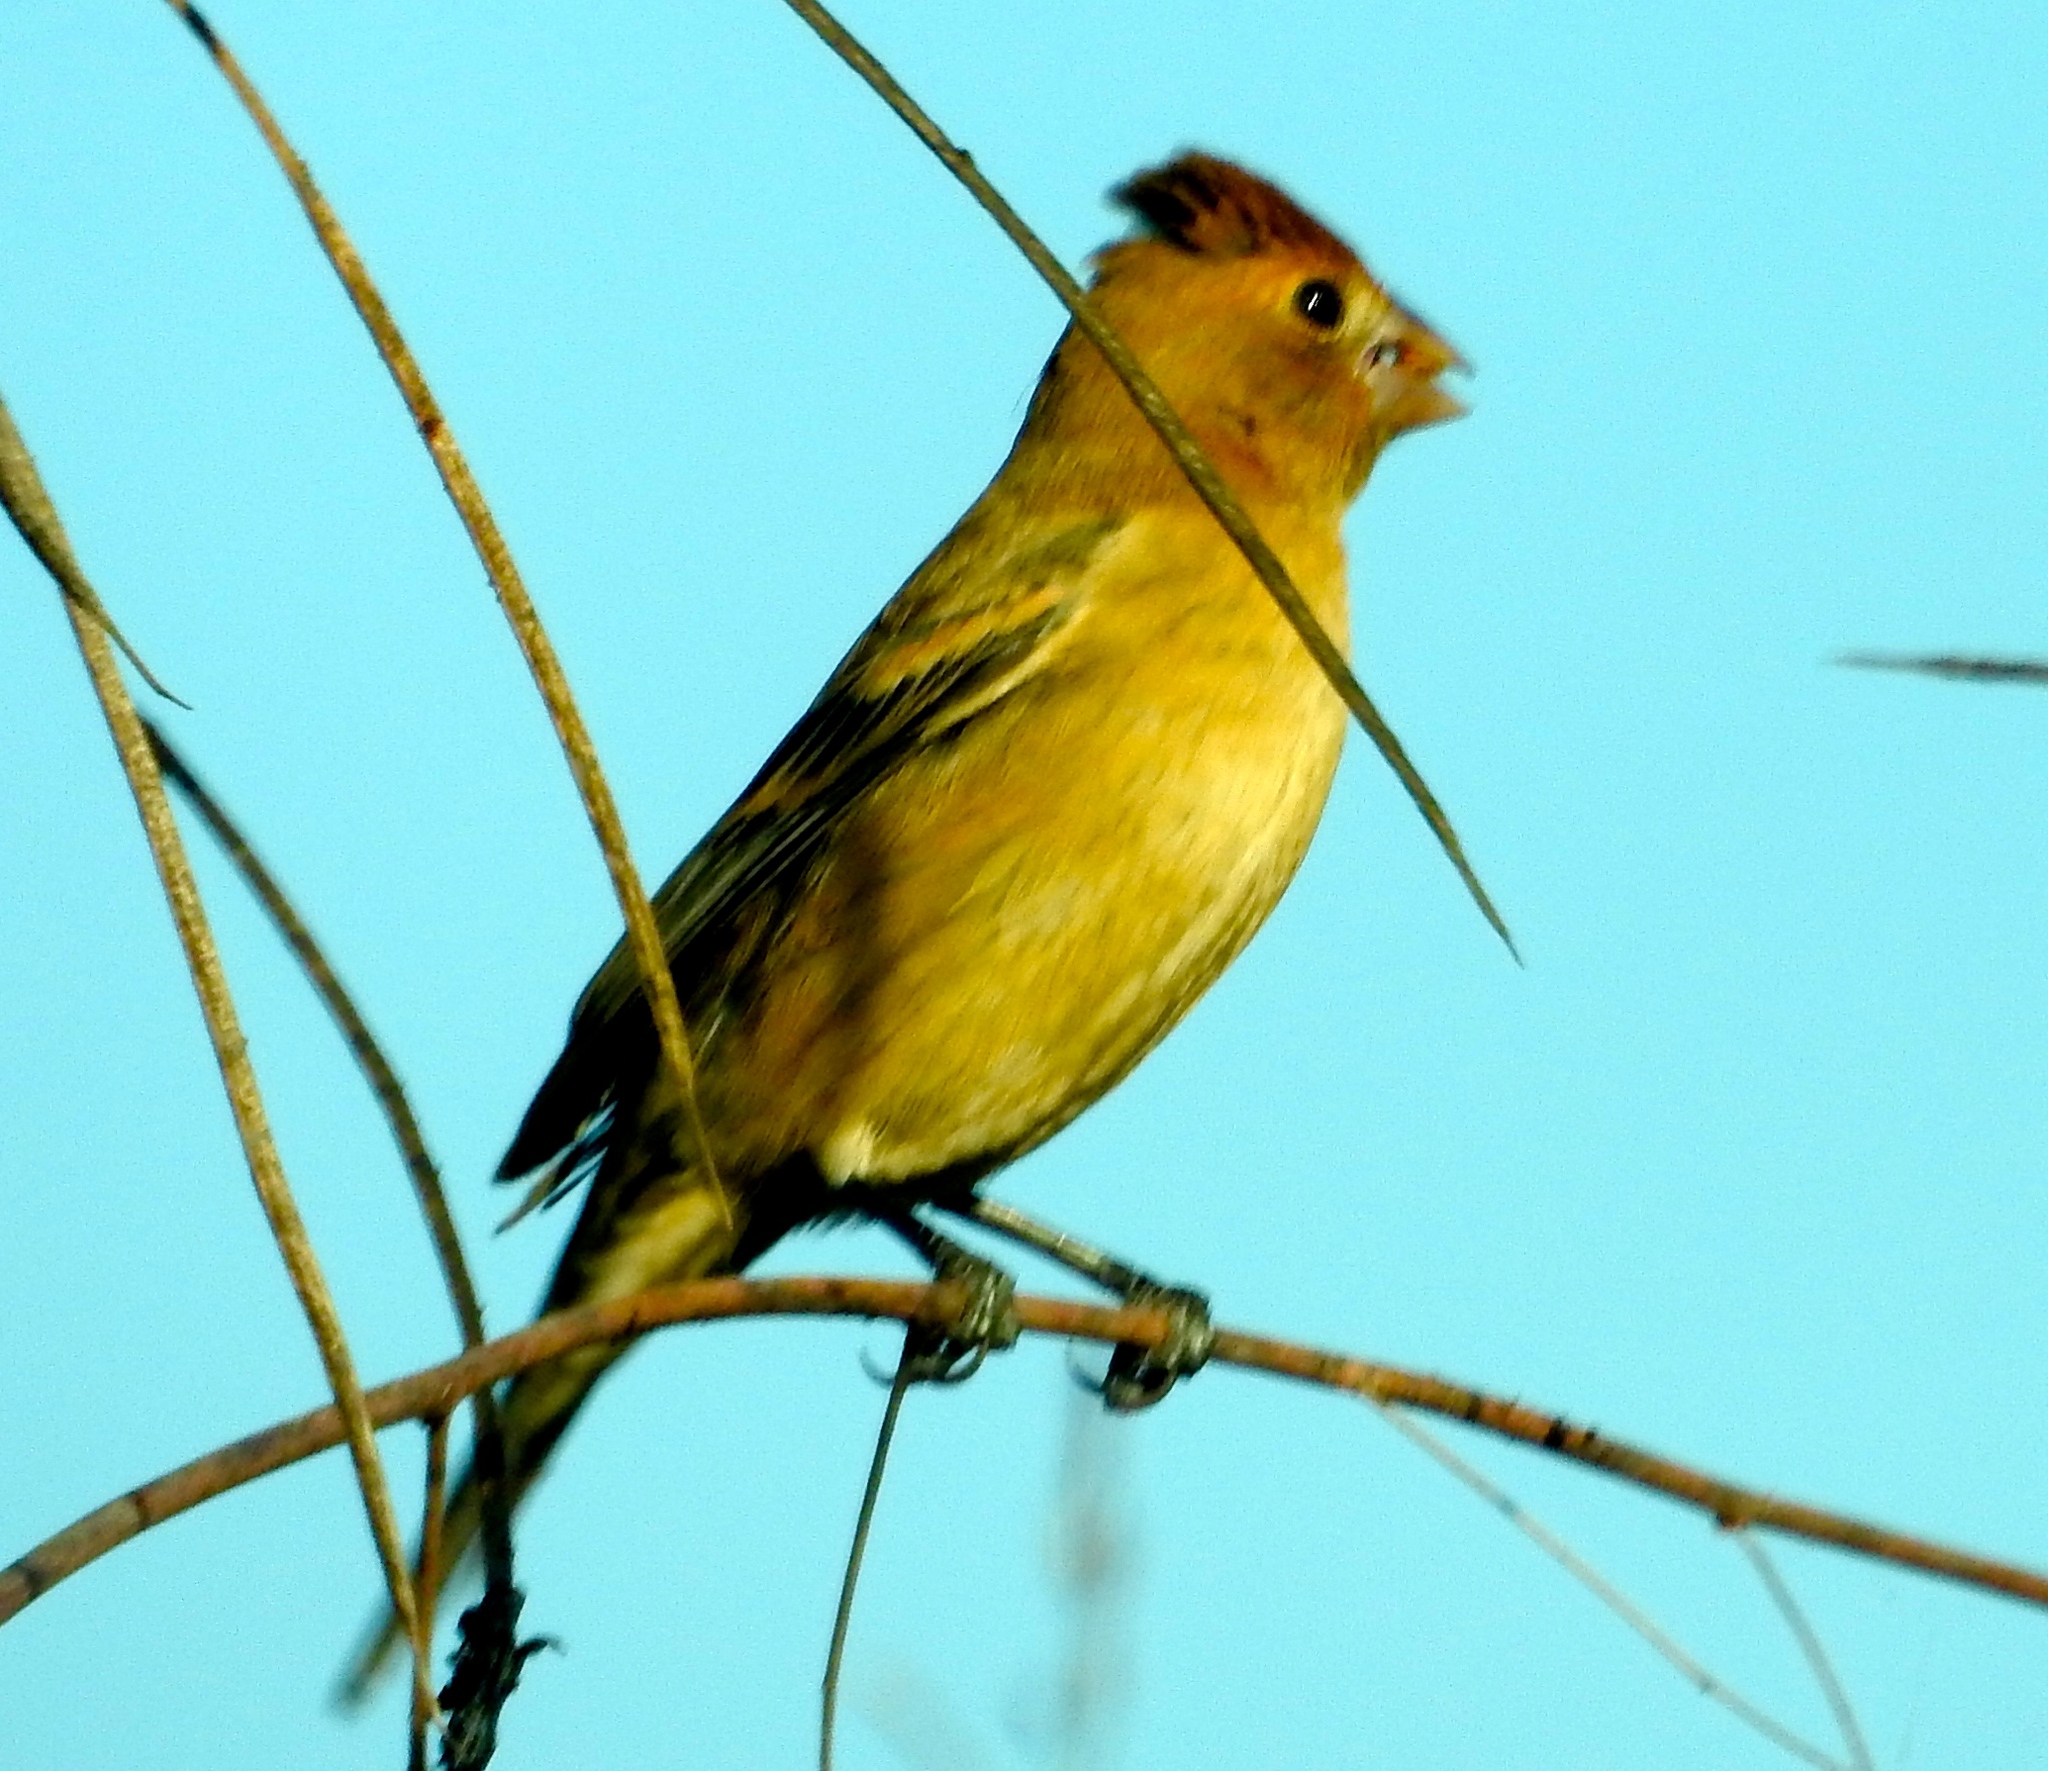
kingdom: Animalia
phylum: Chordata
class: Aves
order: Passeriformes
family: Cardinalidae
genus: Passerina
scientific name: Passerina caerulea
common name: Blue grosbeak
